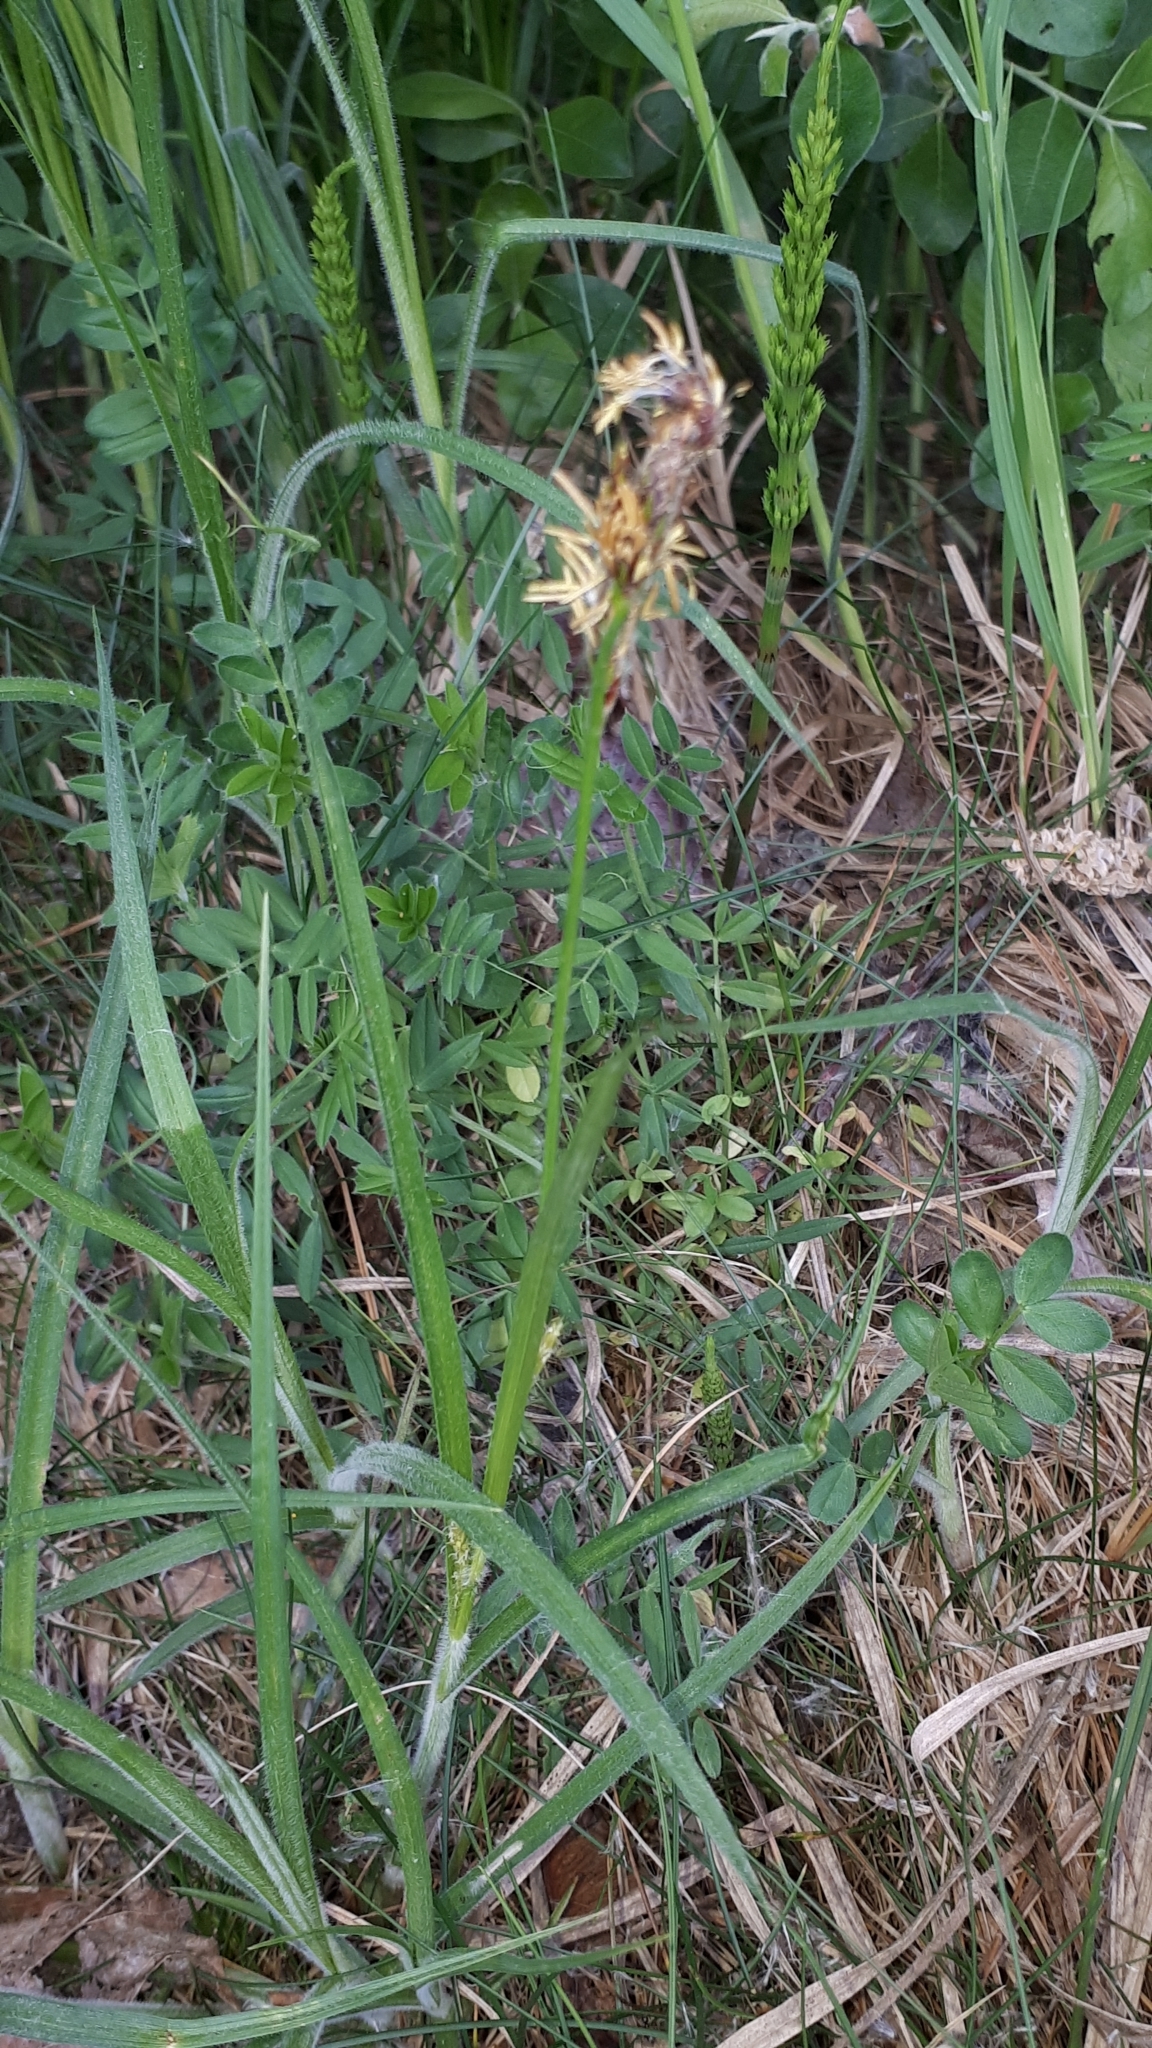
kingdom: Plantae
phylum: Tracheophyta
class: Liliopsida
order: Poales
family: Cyperaceae
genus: Carex
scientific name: Carex hirta
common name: Hairy sedge
